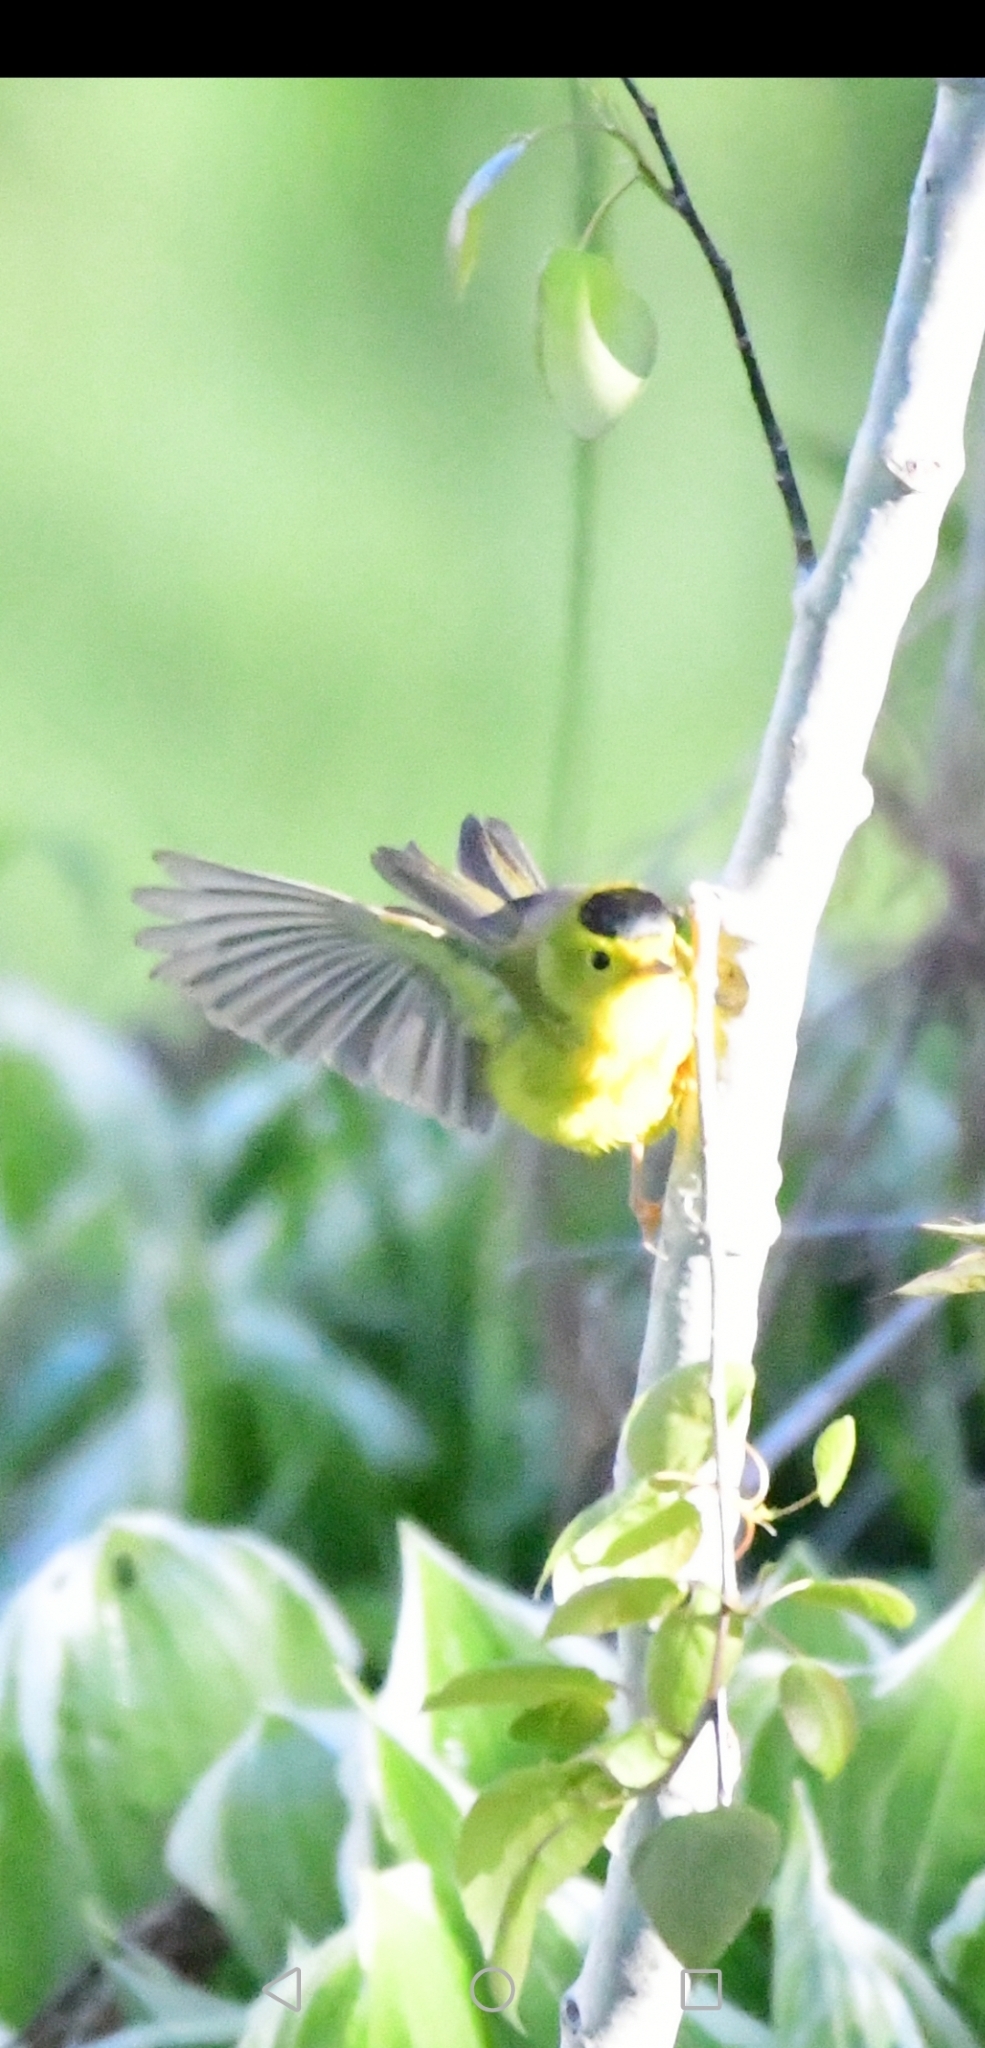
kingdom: Animalia
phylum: Chordata
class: Aves
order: Passeriformes
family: Parulidae
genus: Cardellina
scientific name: Cardellina pusilla
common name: Wilson's warbler
